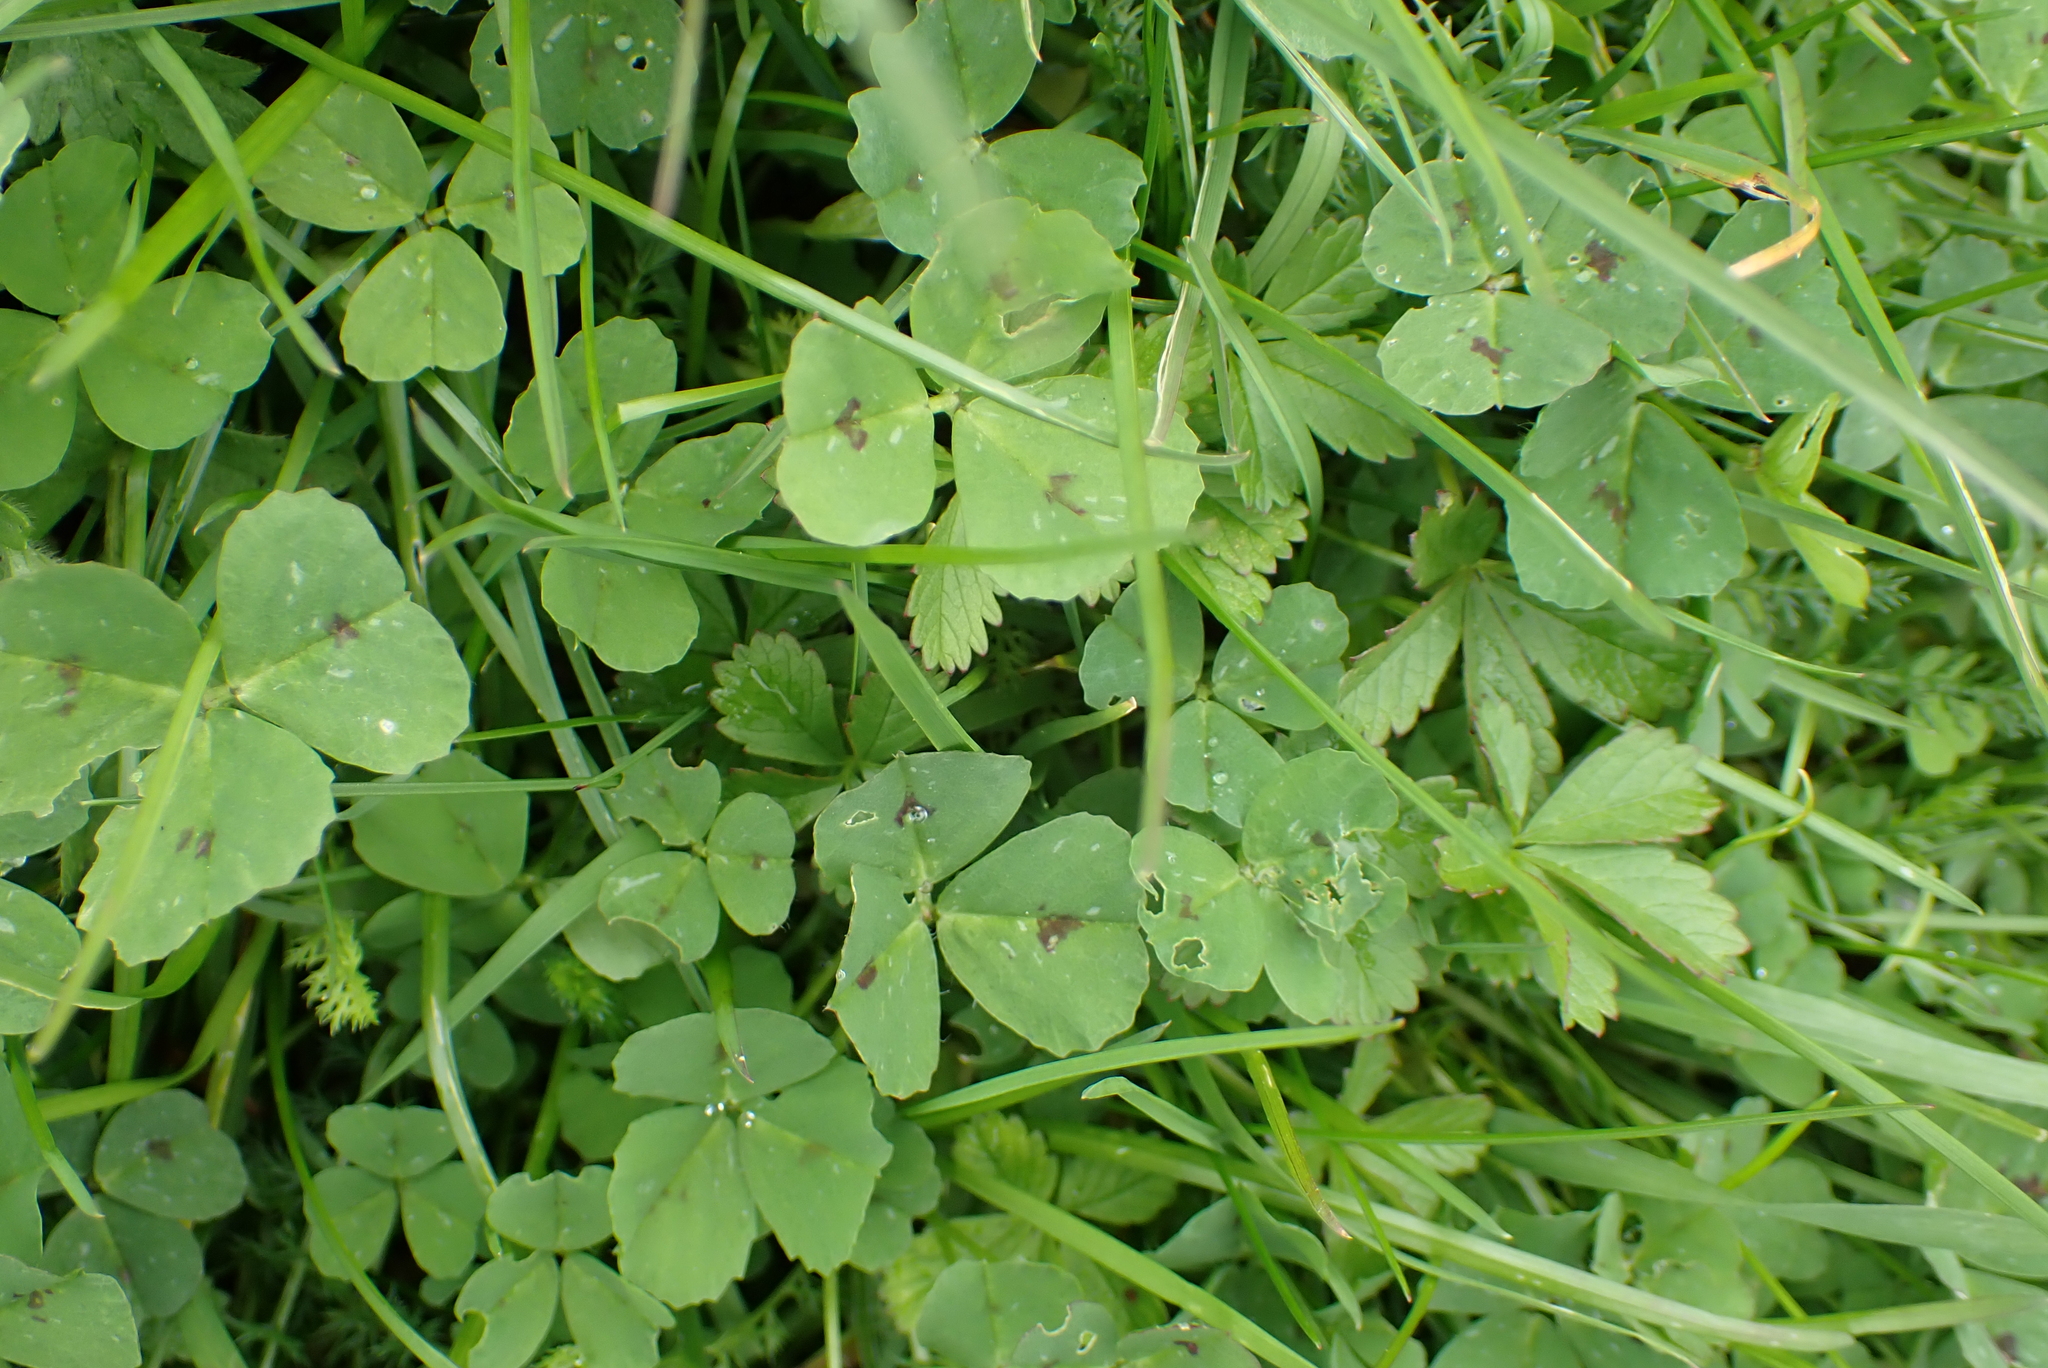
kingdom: Plantae
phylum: Tracheophyta
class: Magnoliopsida
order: Fabales
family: Fabaceae
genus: Medicago
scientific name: Medicago arabica
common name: Spotted medick
